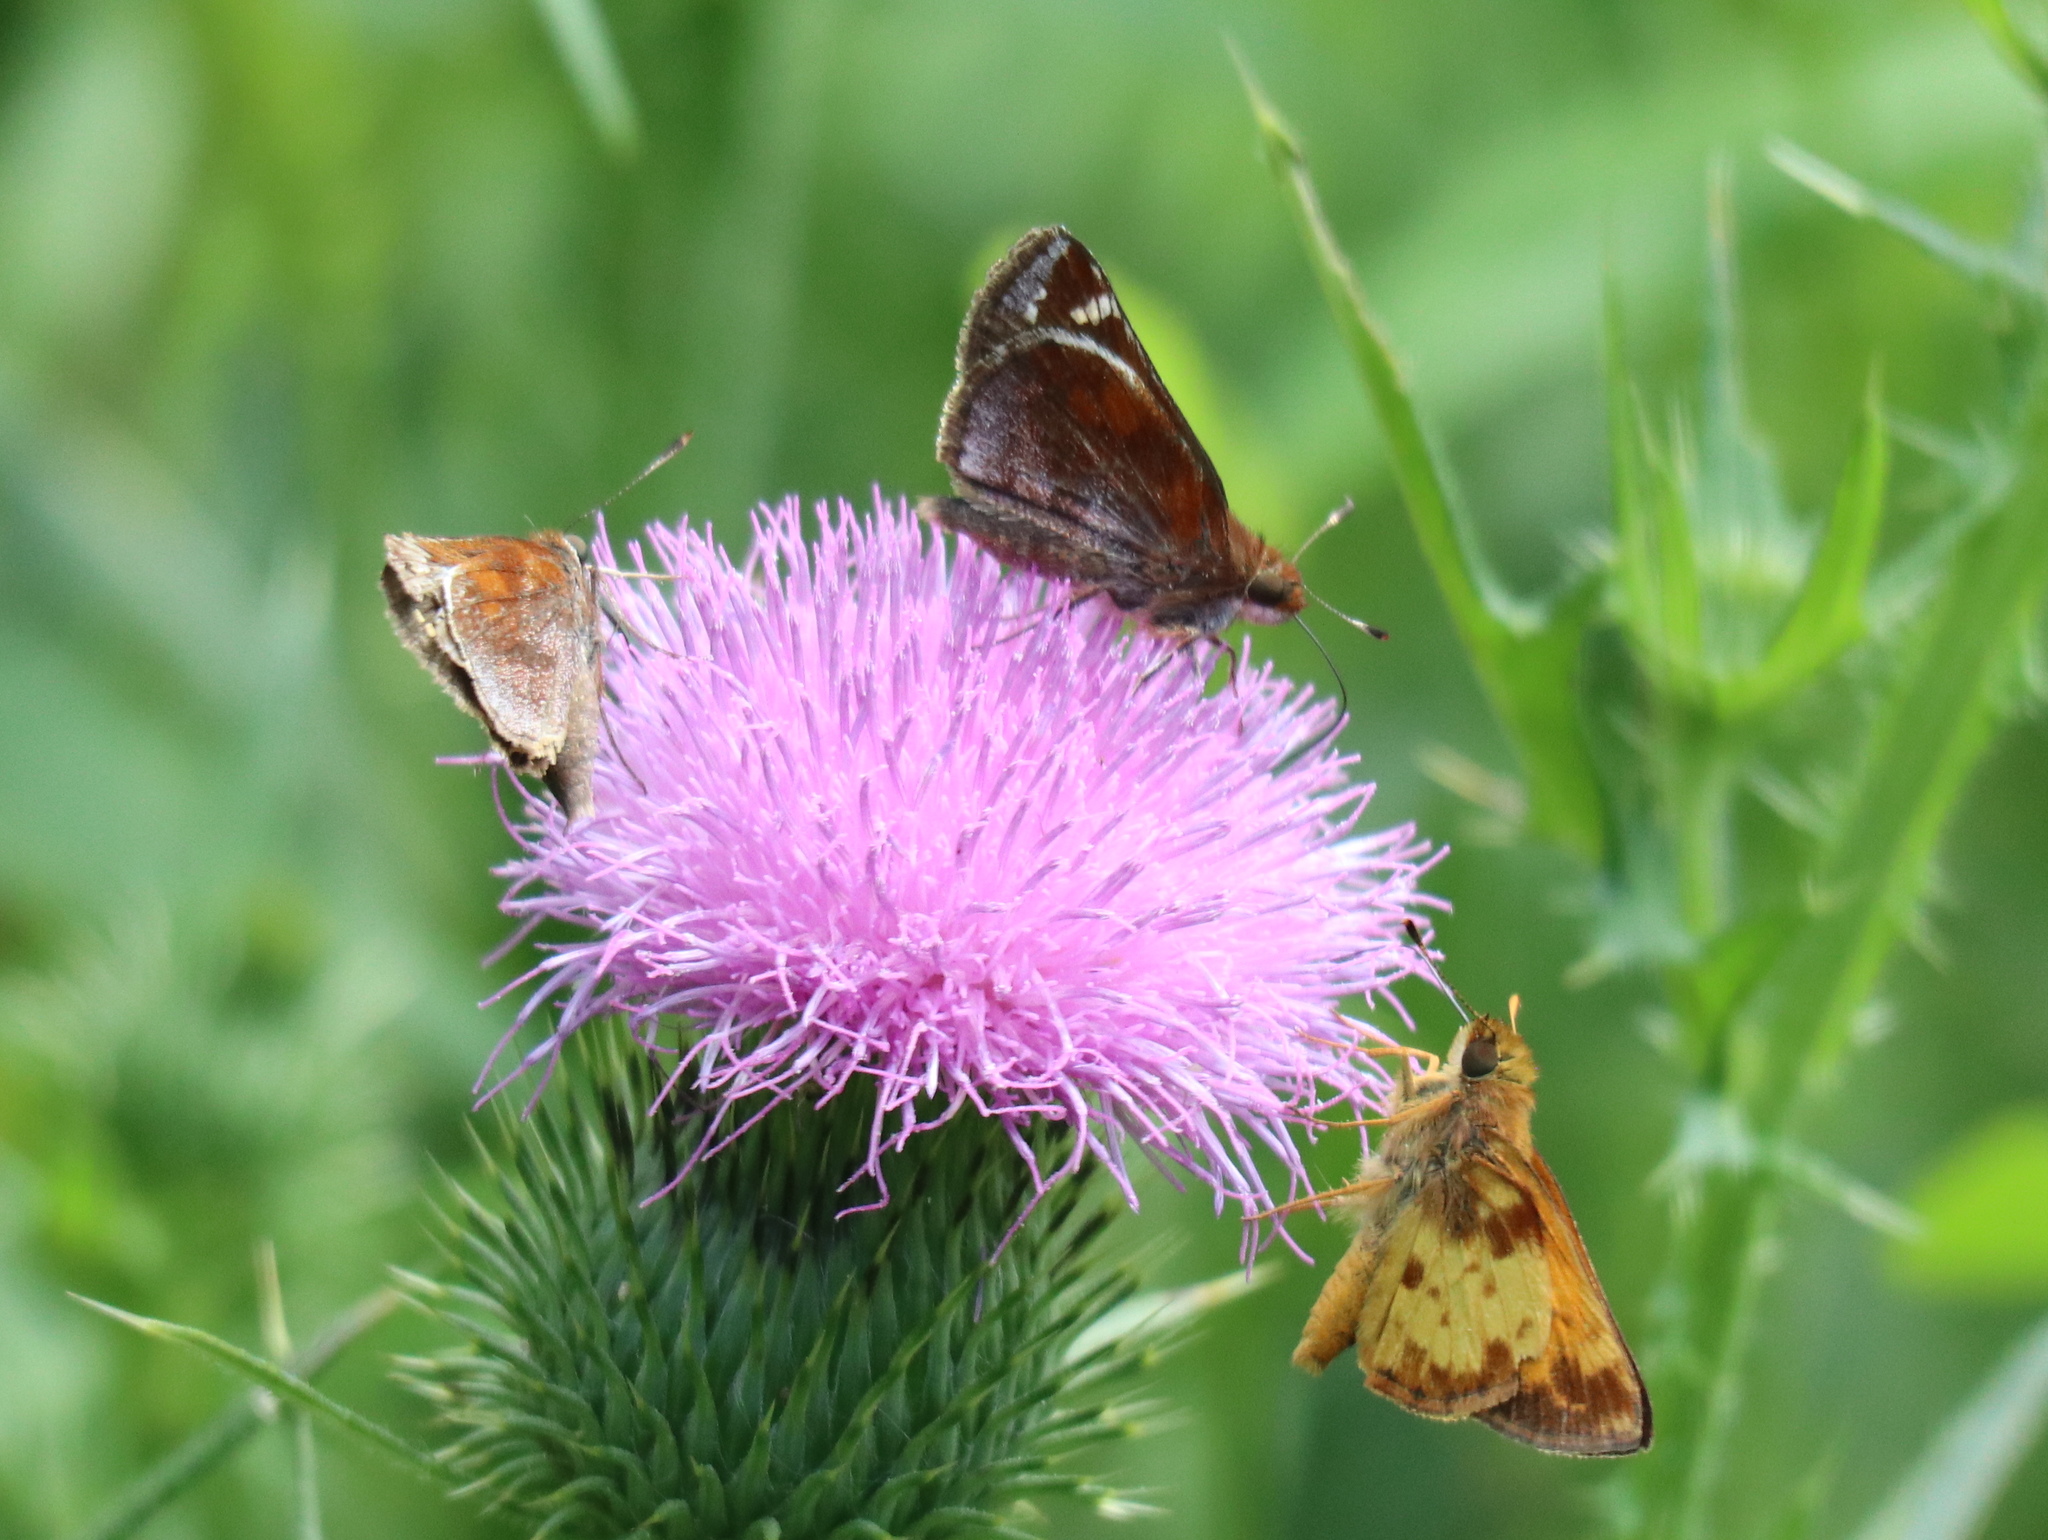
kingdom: Animalia
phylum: Arthropoda
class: Insecta
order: Lepidoptera
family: Hesperiidae
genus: Lon
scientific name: Lon zabulon
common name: Zabulon skipper
